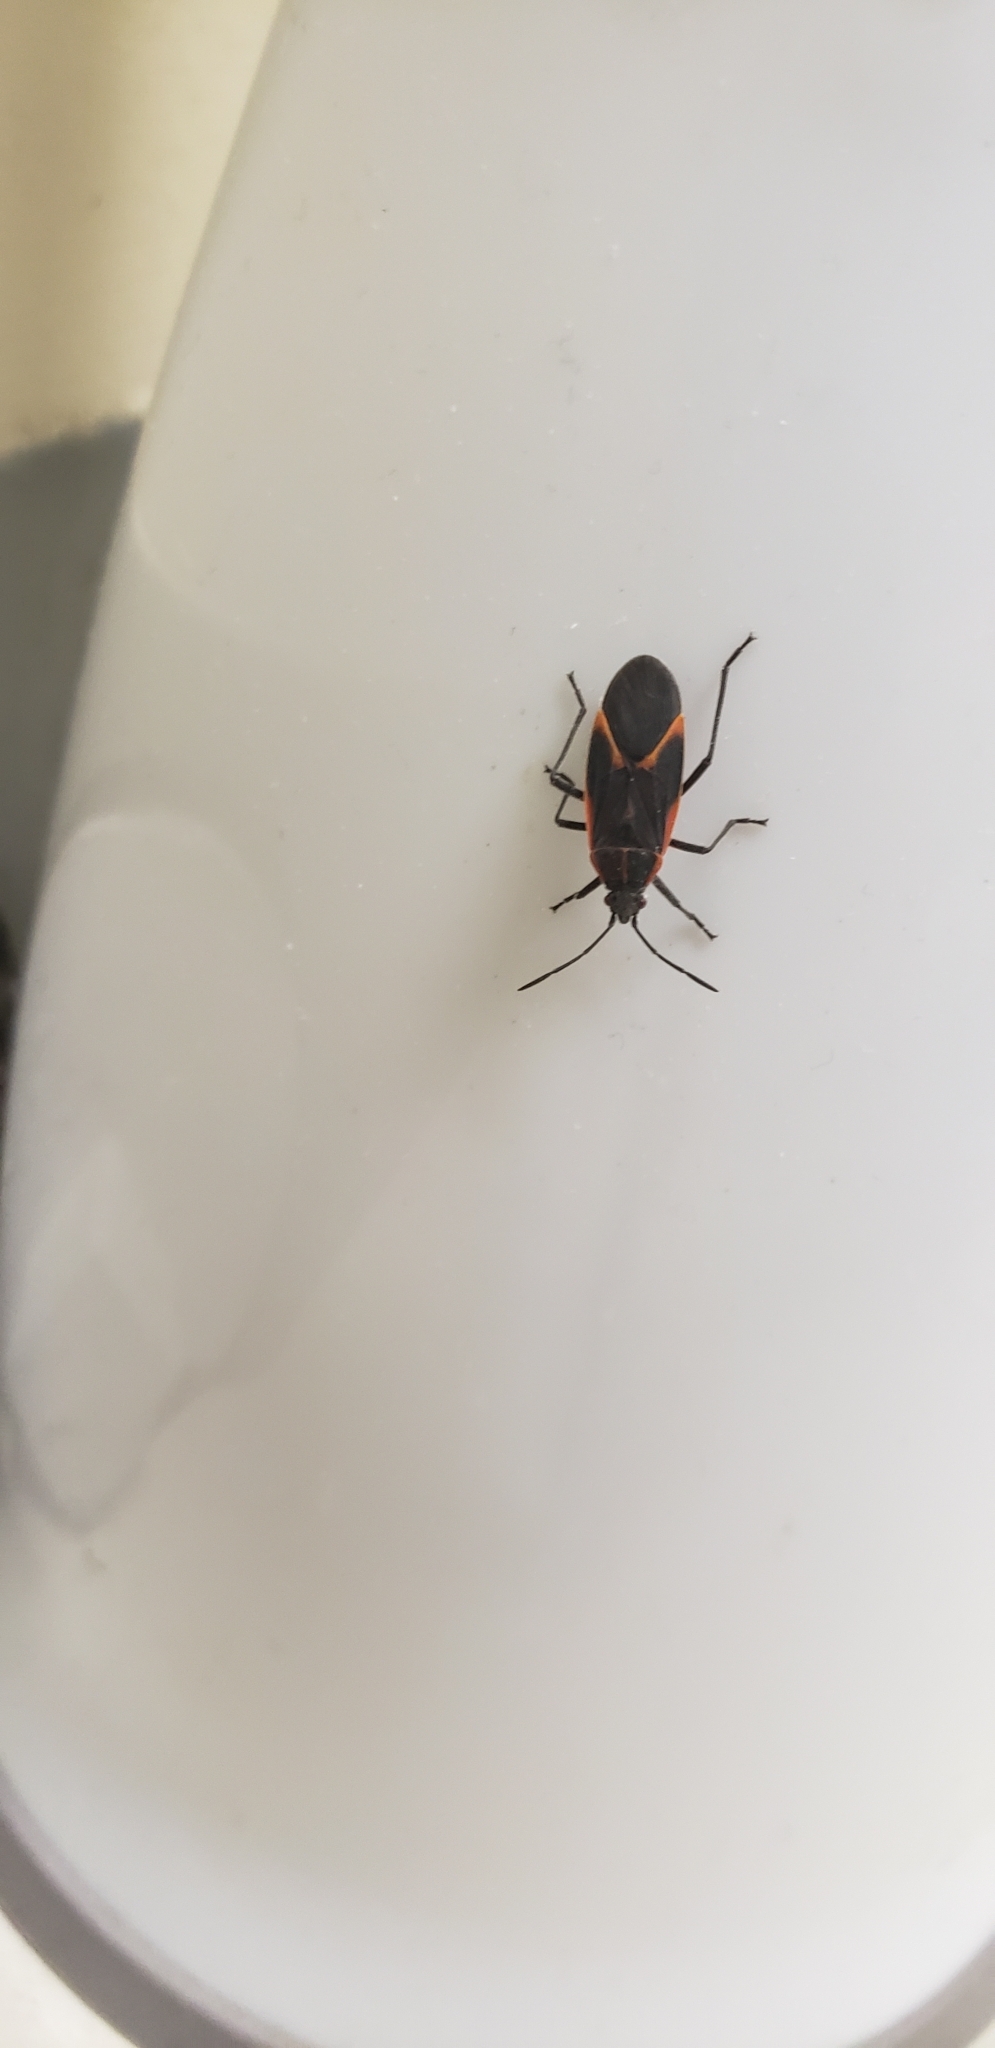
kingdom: Animalia
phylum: Arthropoda
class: Insecta
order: Hemiptera
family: Rhopalidae
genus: Boisea
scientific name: Boisea trivittata
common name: Boxelder bug
